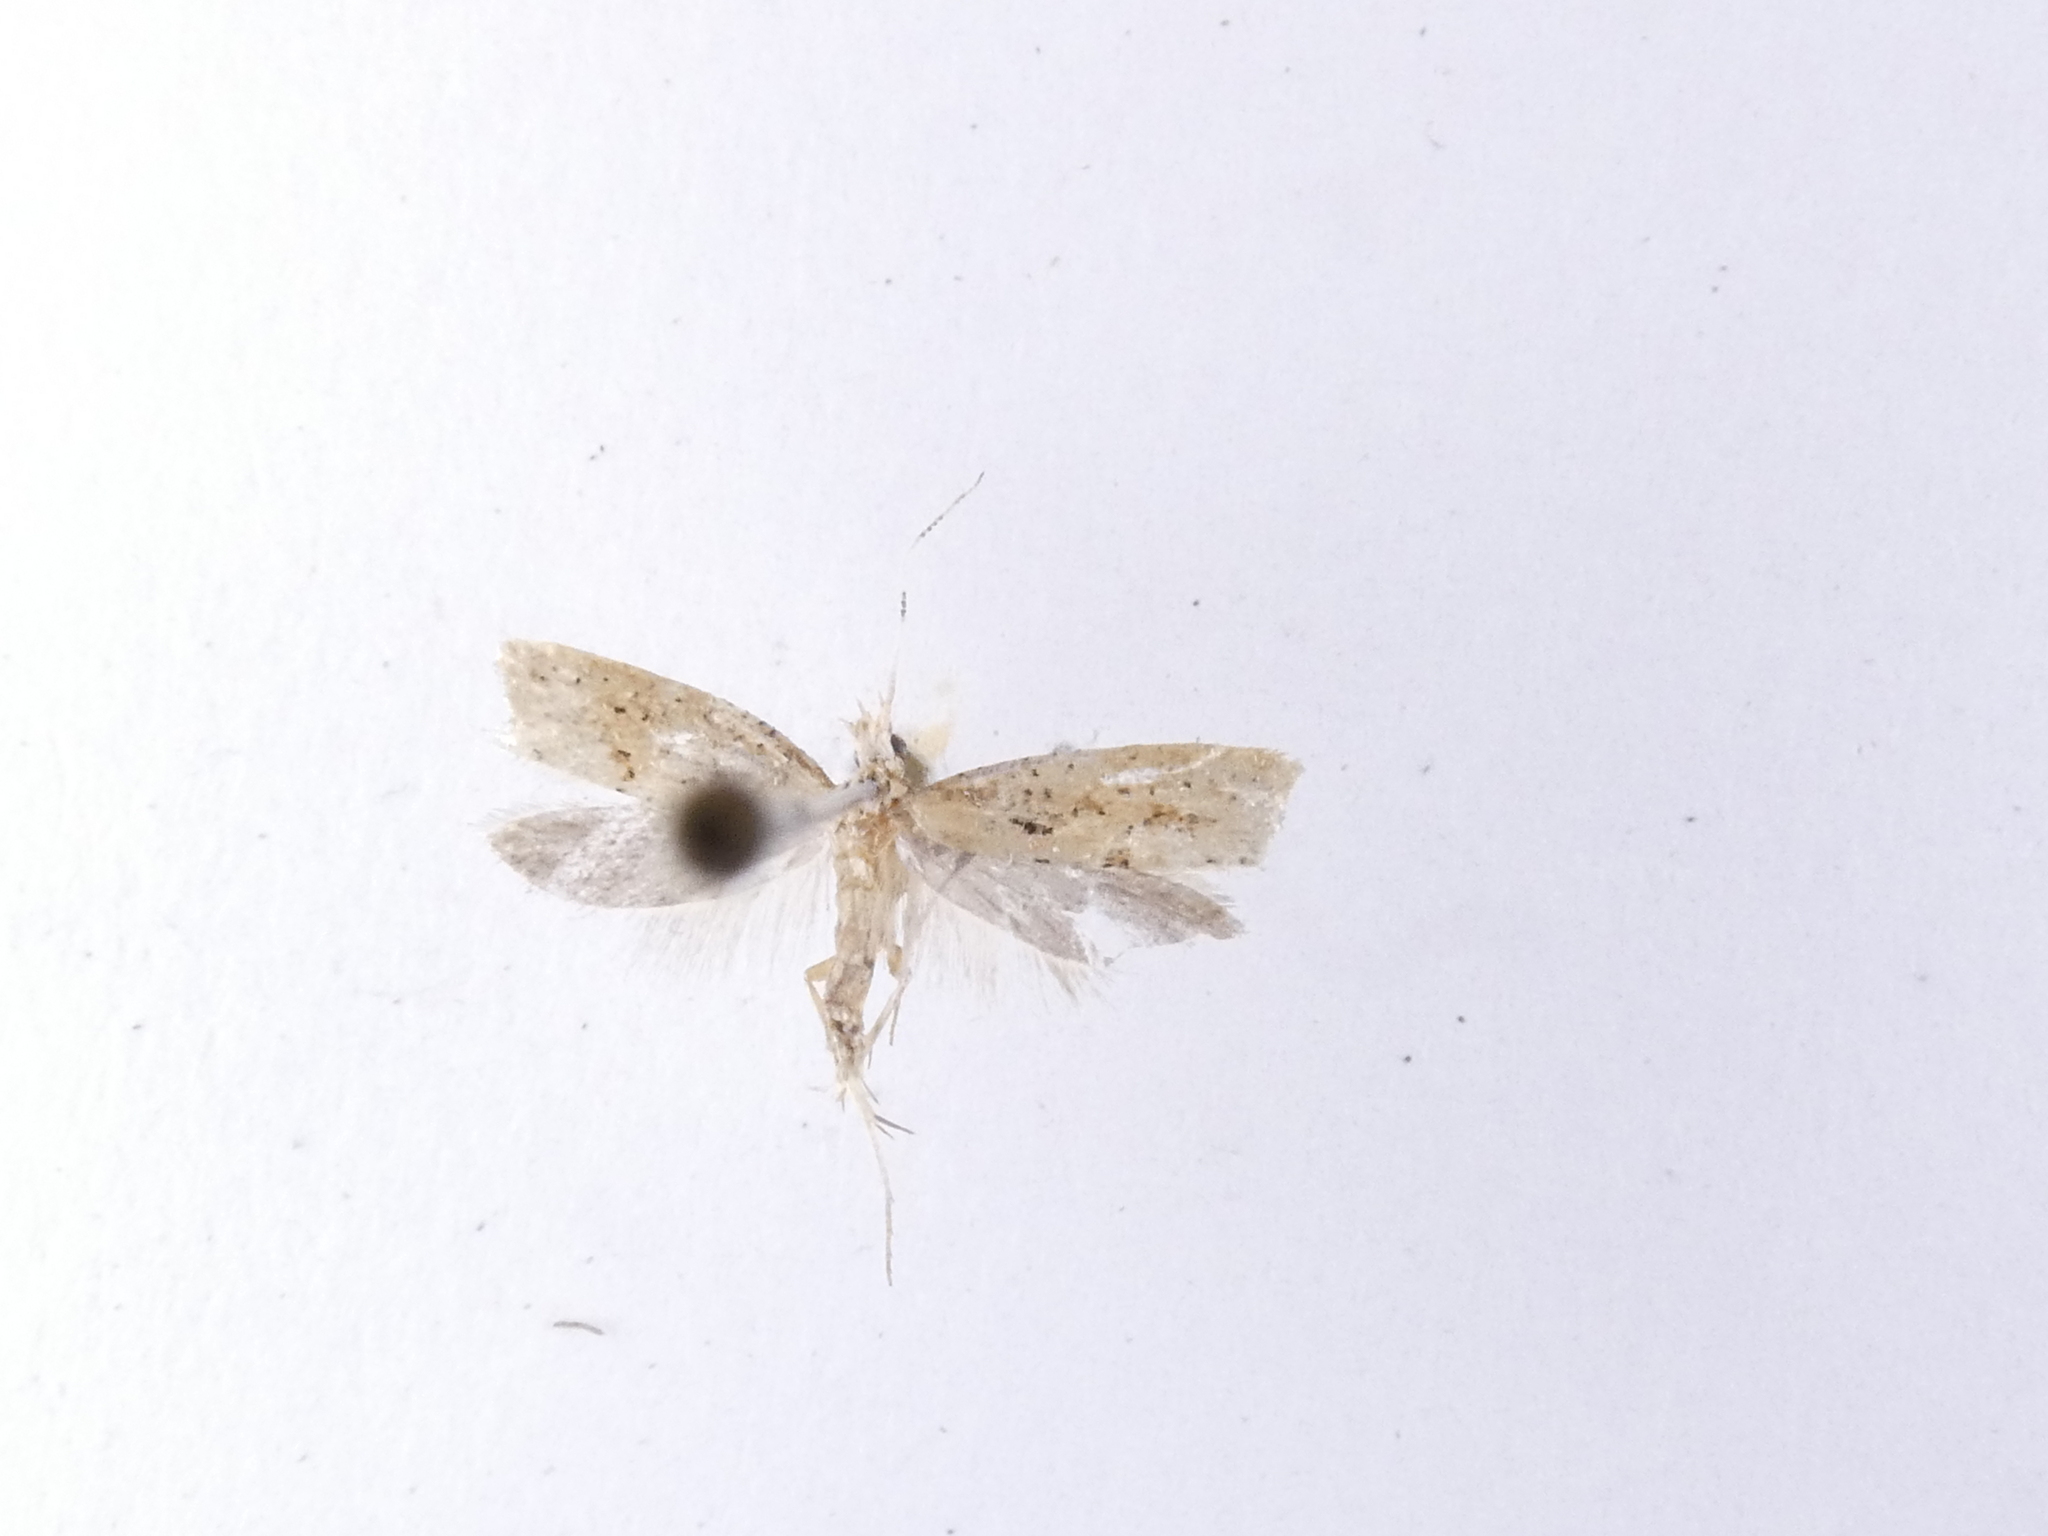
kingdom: Animalia
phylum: Arthropoda
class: Insecta
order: Lepidoptera
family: Plutellidae
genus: Leuroperna
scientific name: Leuroperna sera
